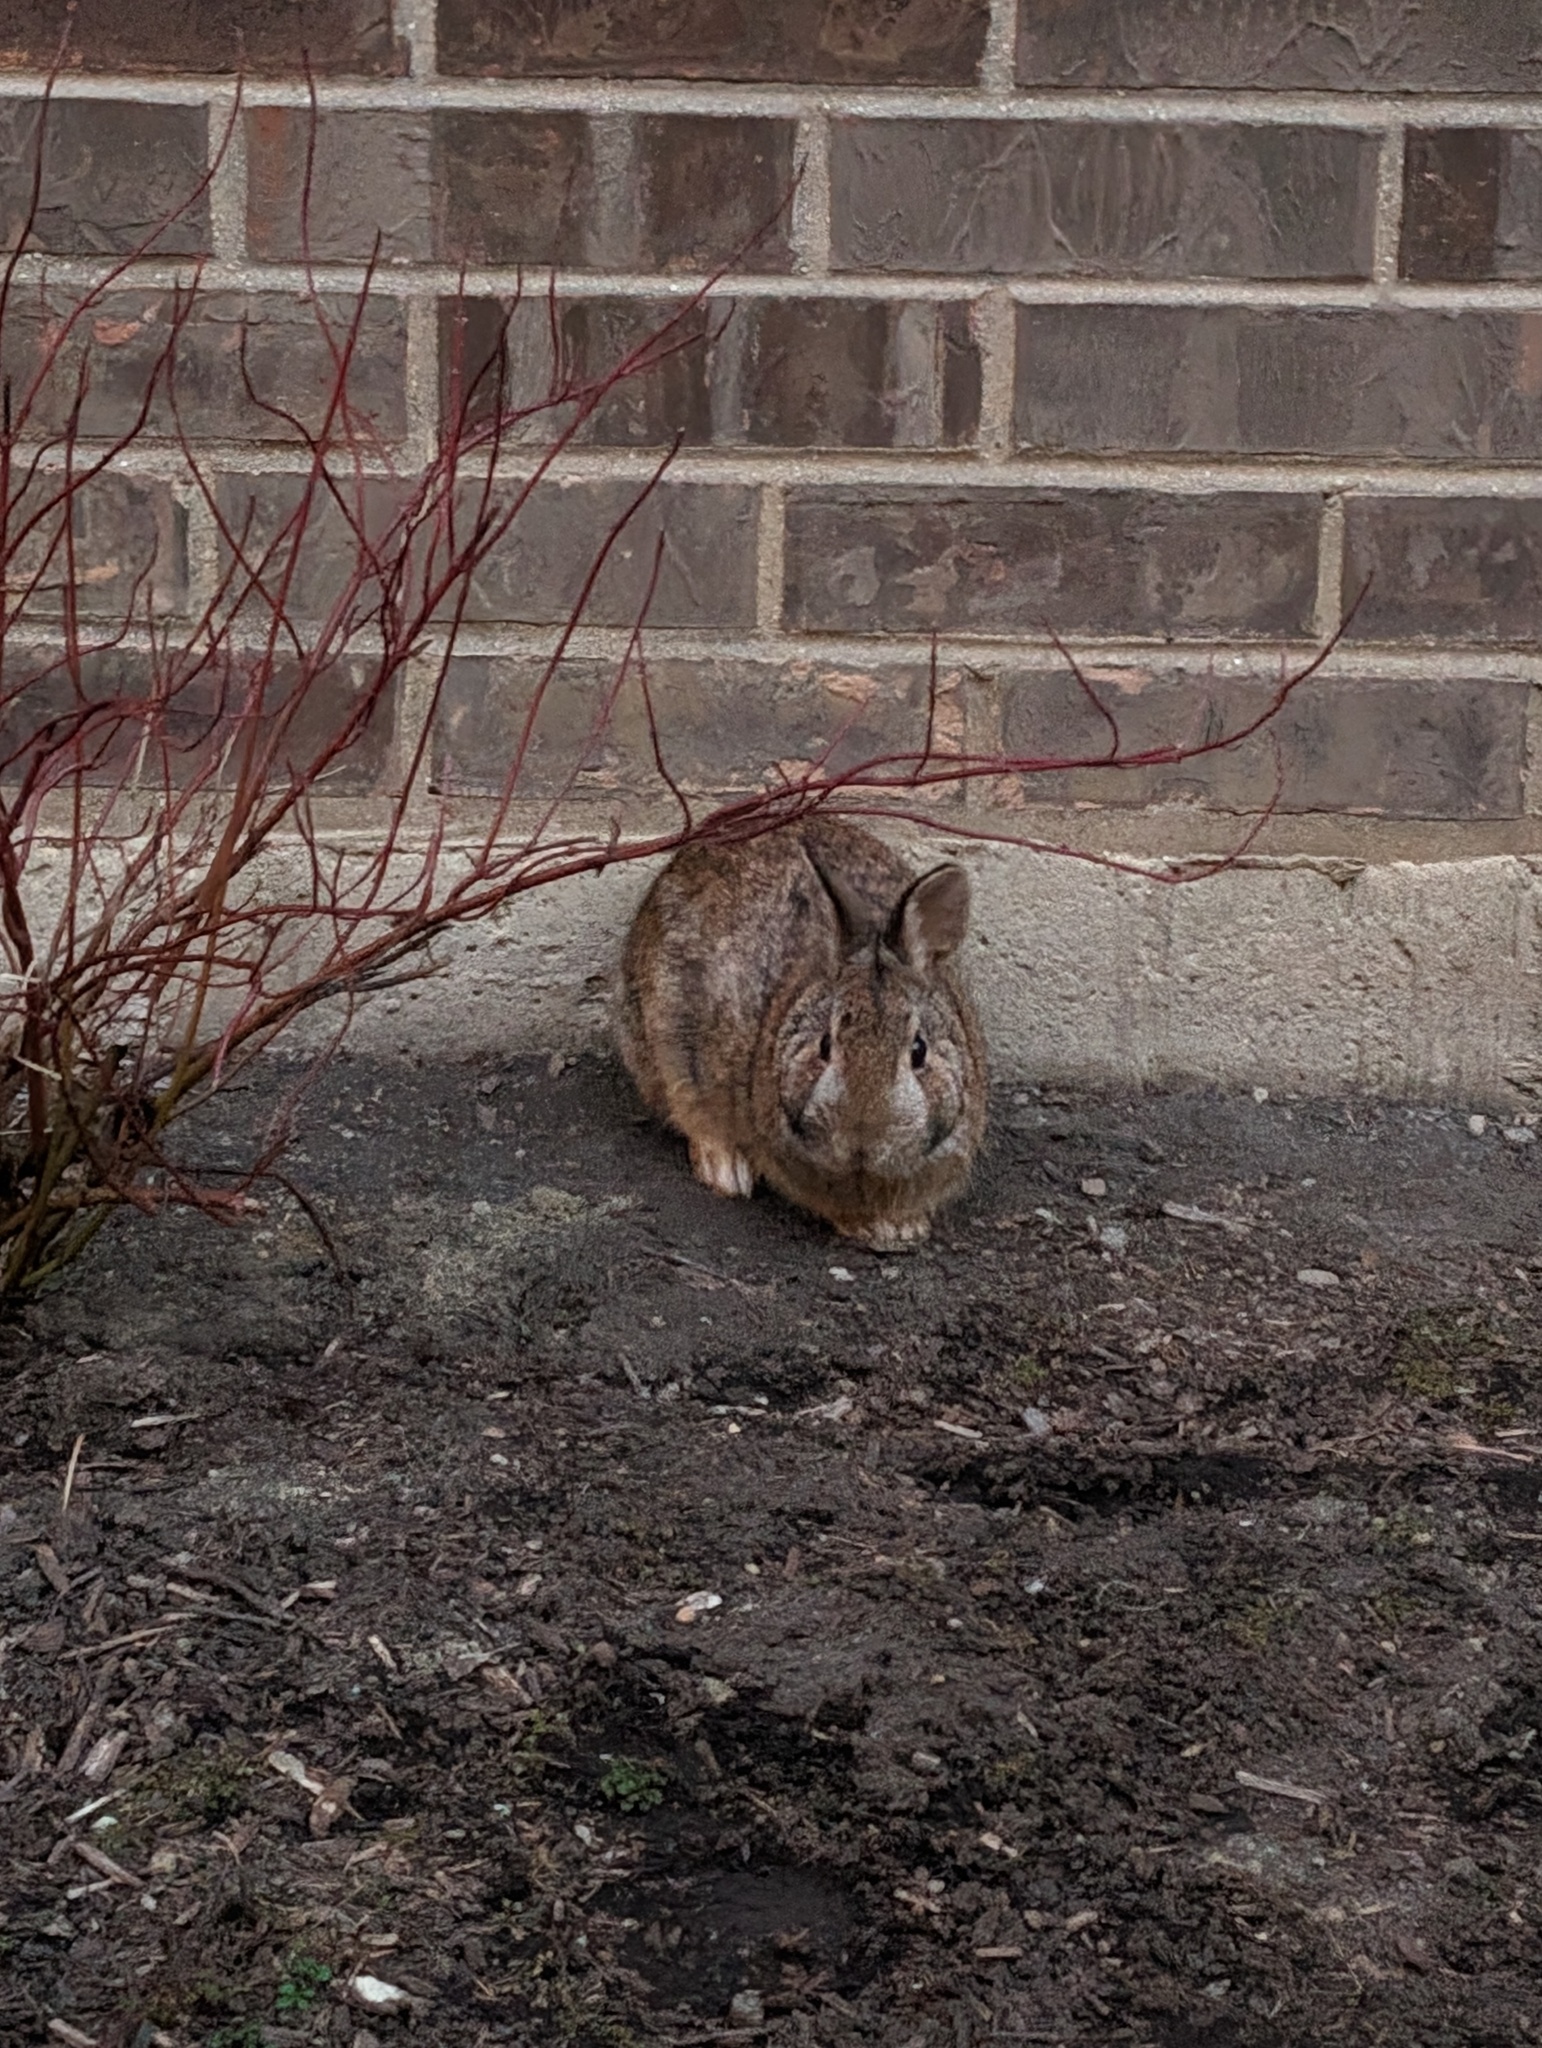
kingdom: Animalia
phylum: Chordata
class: Mammalia
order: Lagomorpha
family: Leporidae
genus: Sylvilagus
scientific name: Sylvilagus floridanus
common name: Eastern cottontail
